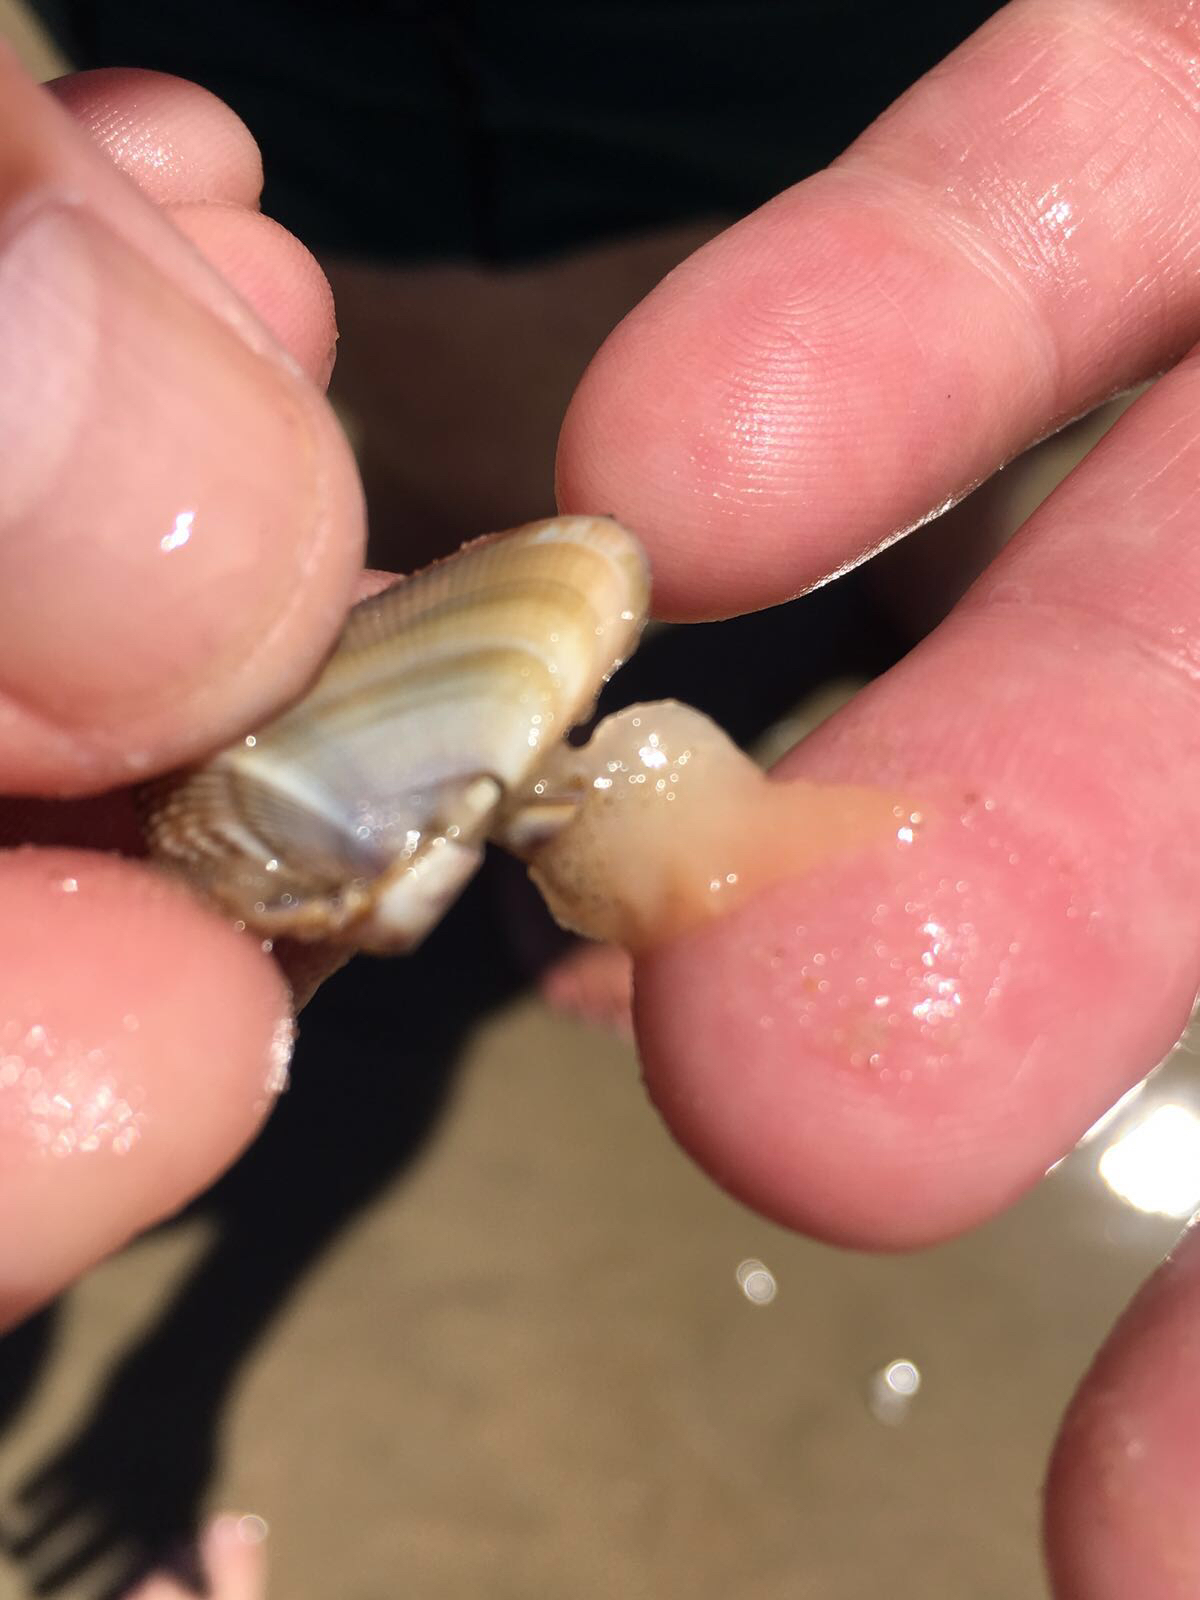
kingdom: Animalia
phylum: Mollusca
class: Bivalvia
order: Cardiida
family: Donacidae
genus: Donax
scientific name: Donax hanleyanus
